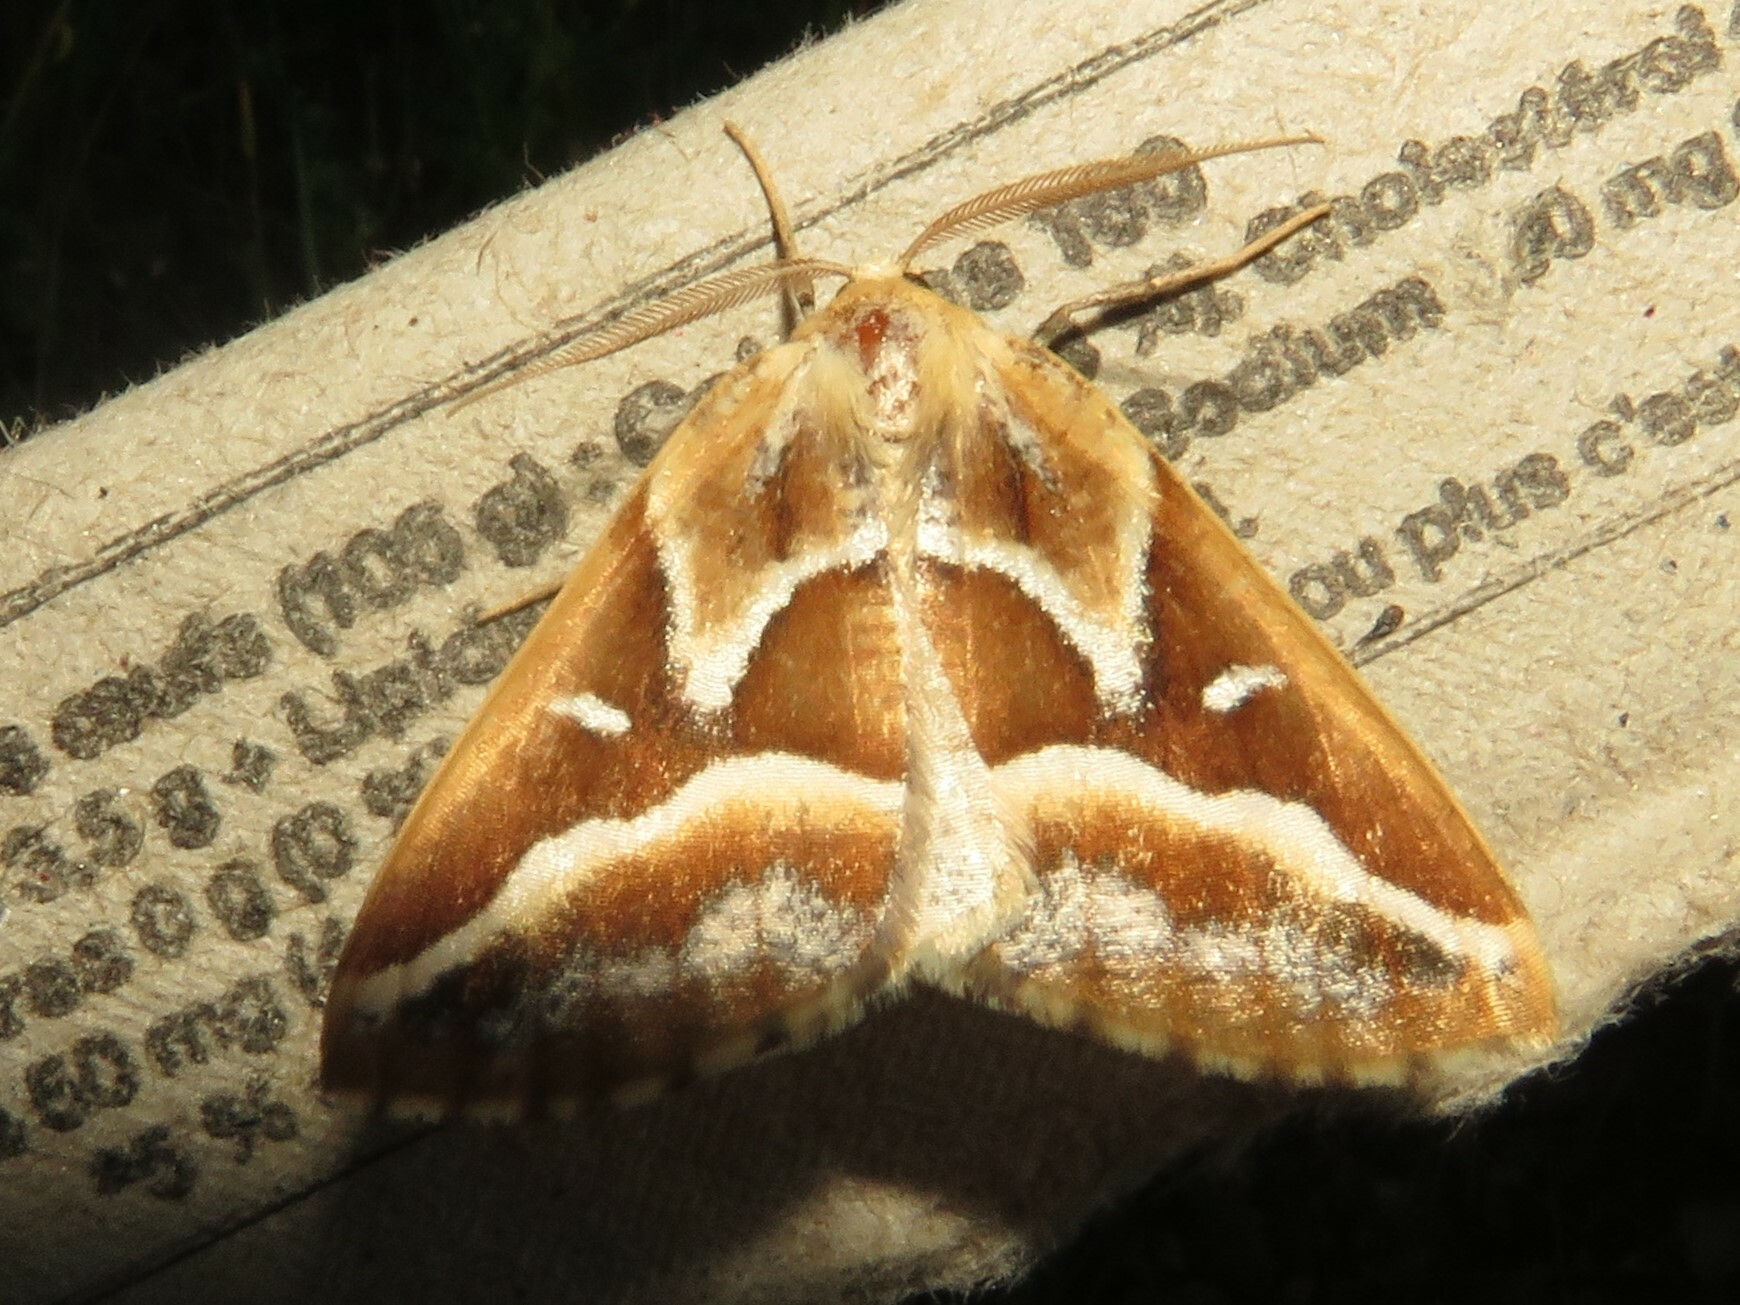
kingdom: Animalia
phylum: Arthropoda
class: Insecta
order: Lepidoptera
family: Geometridae
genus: Caripeta
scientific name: Caripeta angustiorata
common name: Brown pine looper
